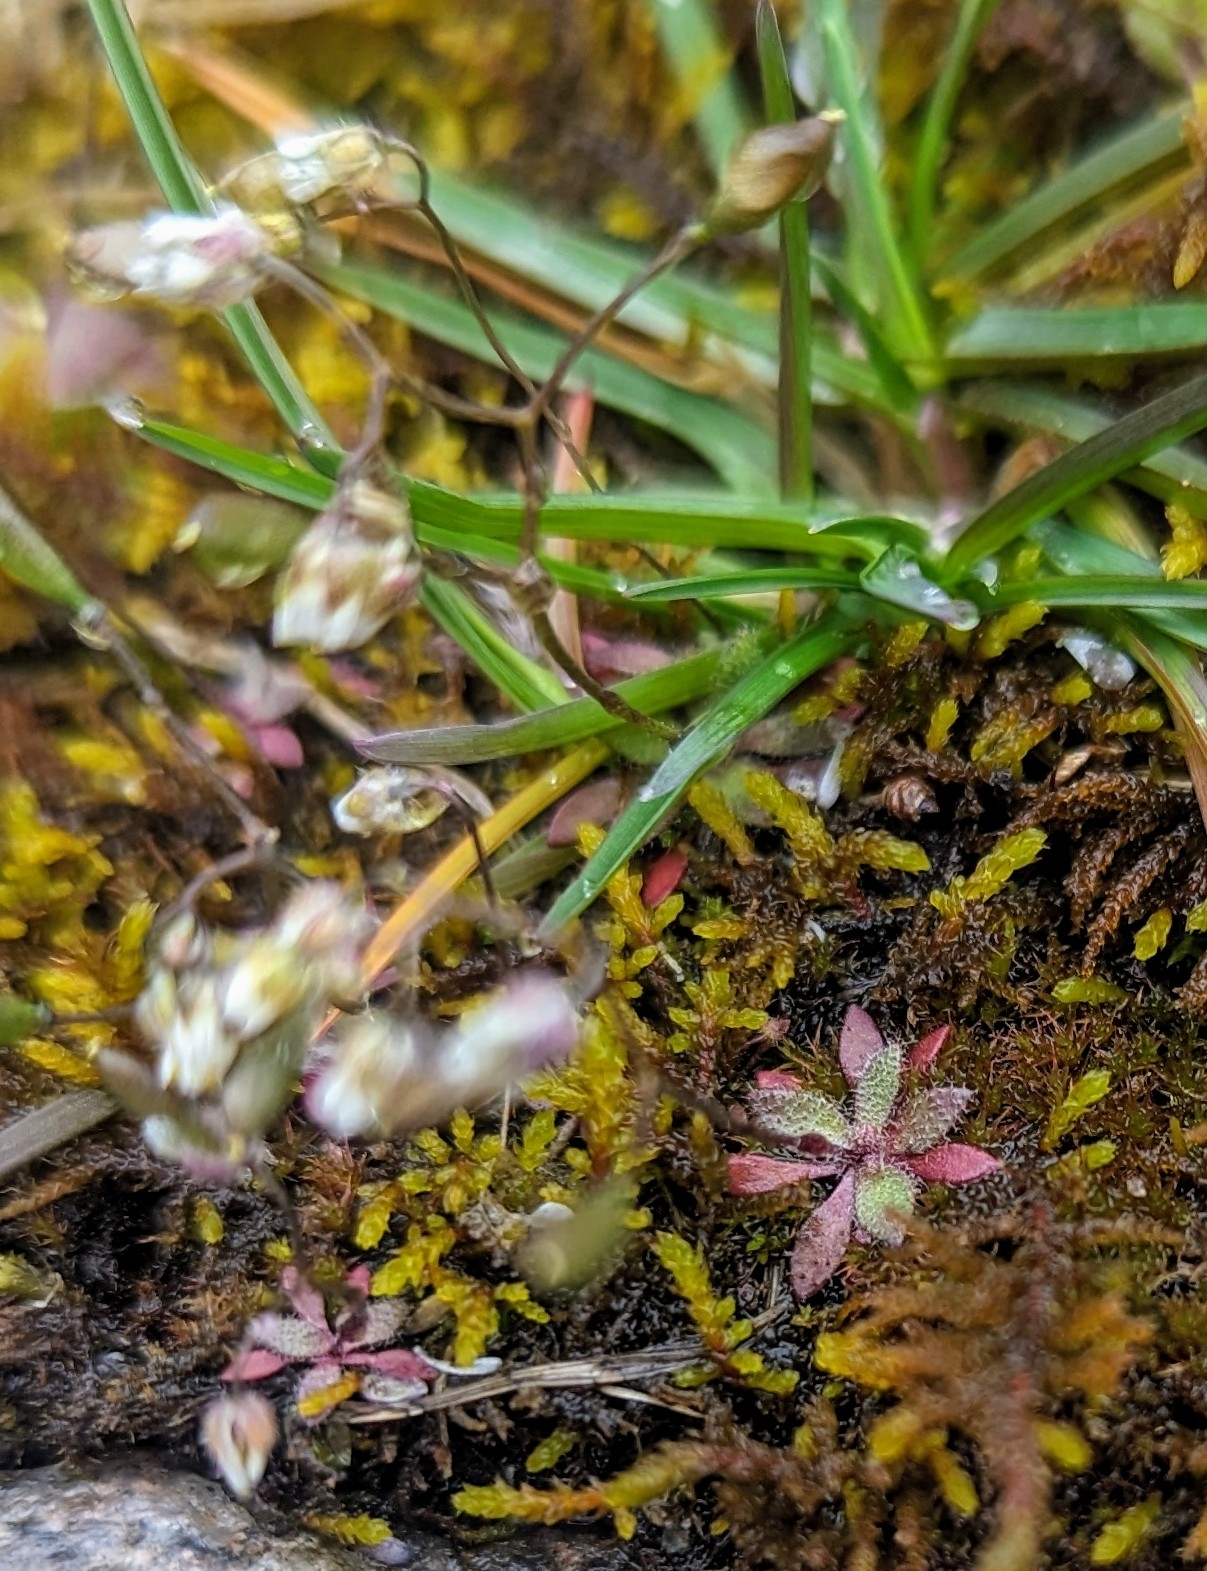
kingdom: Plantae
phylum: Tracheophyta
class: Magnoliopsida
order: Brassicales
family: Brassicaceae
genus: Draba
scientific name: Draba verna
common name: Spring draba
